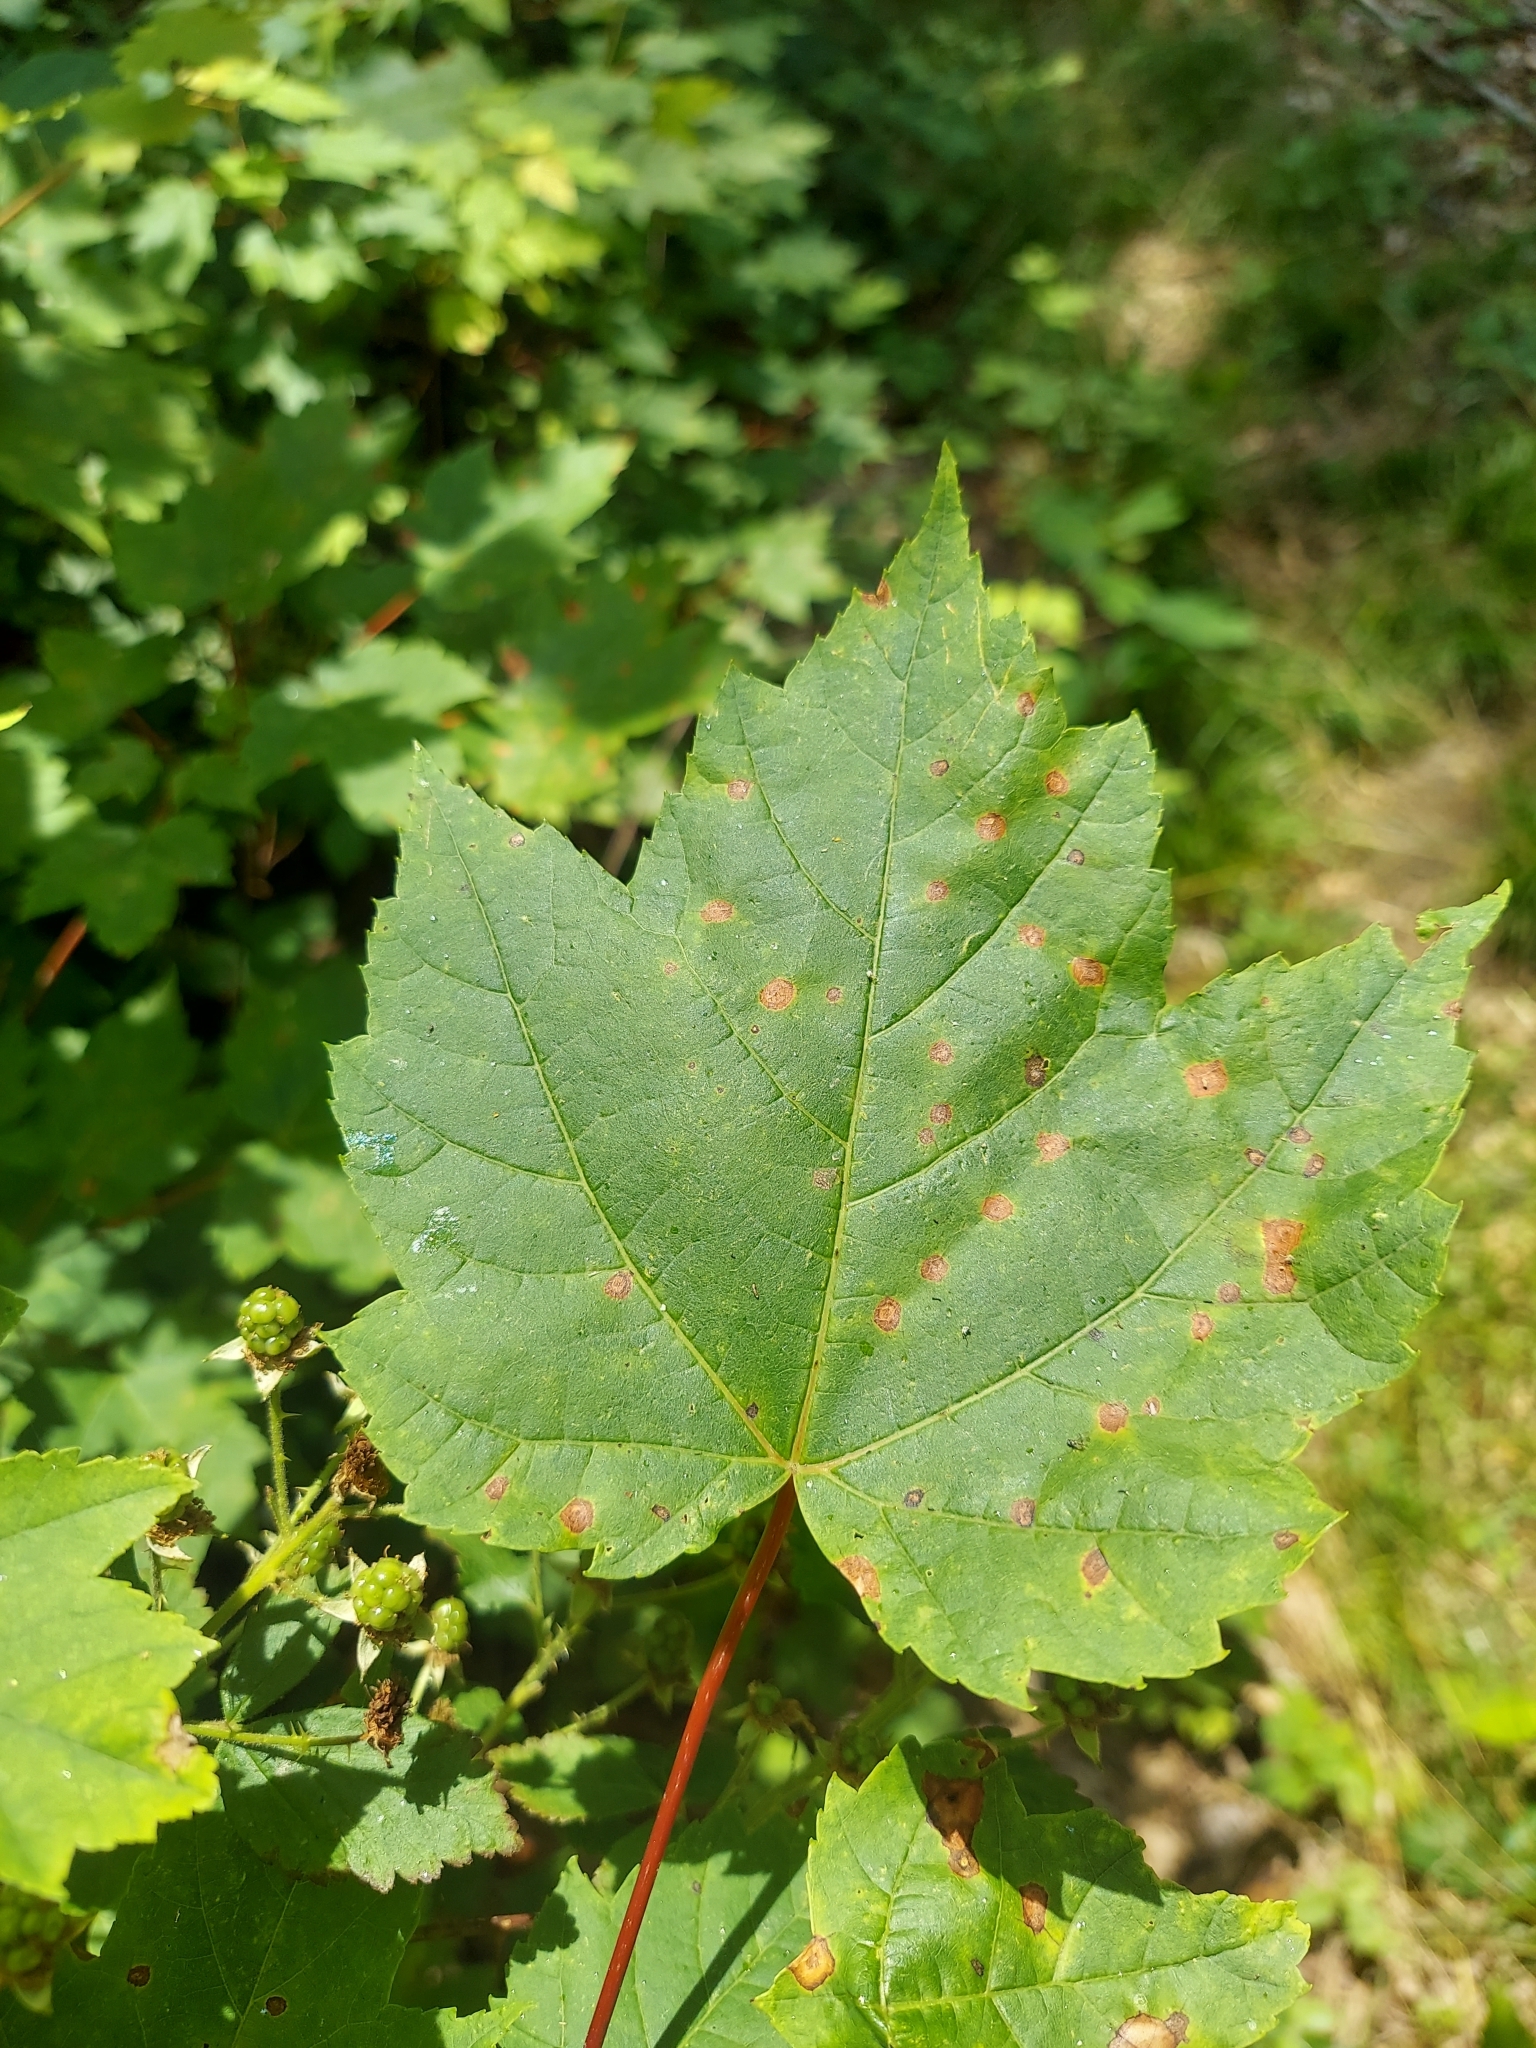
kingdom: Plantae
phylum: Tracheophyta
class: Magnoliopsida
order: Sapindales
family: Sapindaceae
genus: Acer
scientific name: Acer rubrum
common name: Red maple
